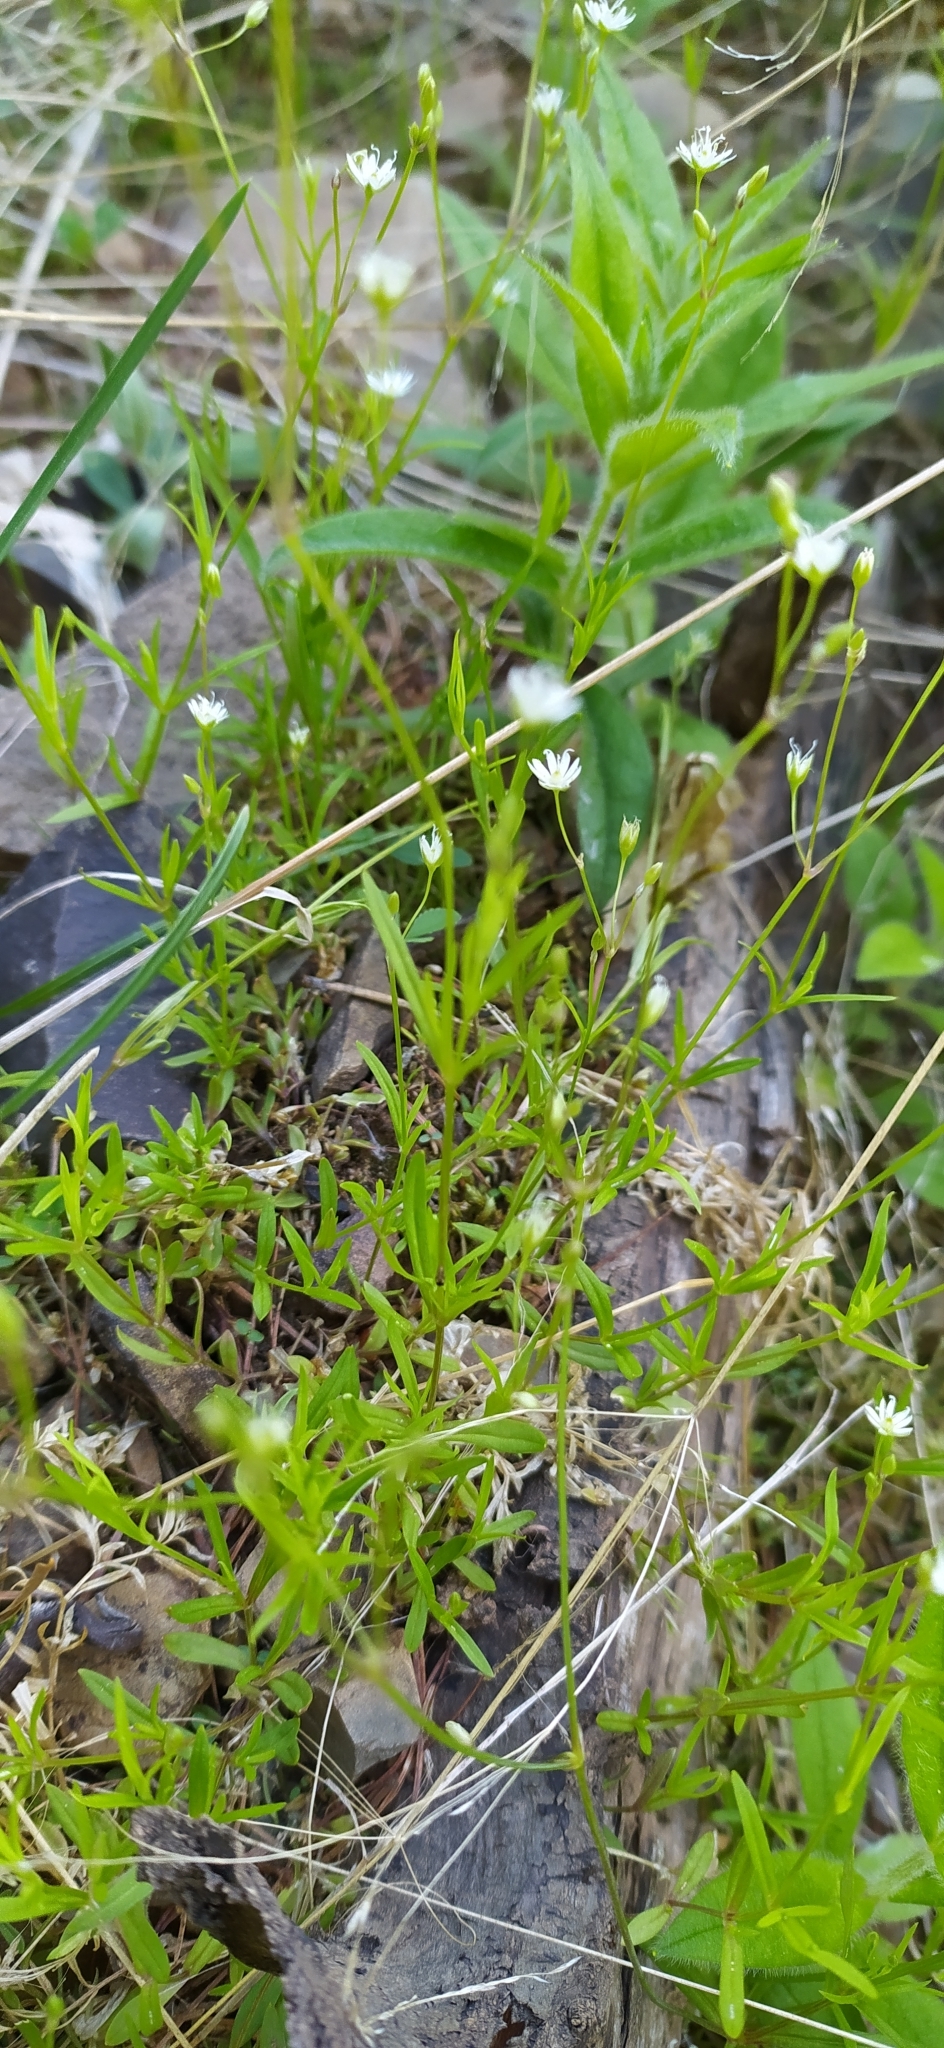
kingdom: Plantae
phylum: Tracheophyta
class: Magnoliopsida
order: Caryophyllales
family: Caryophyllaceae
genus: Stellaria
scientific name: Stellaria graminea
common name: Grass-like starwort
